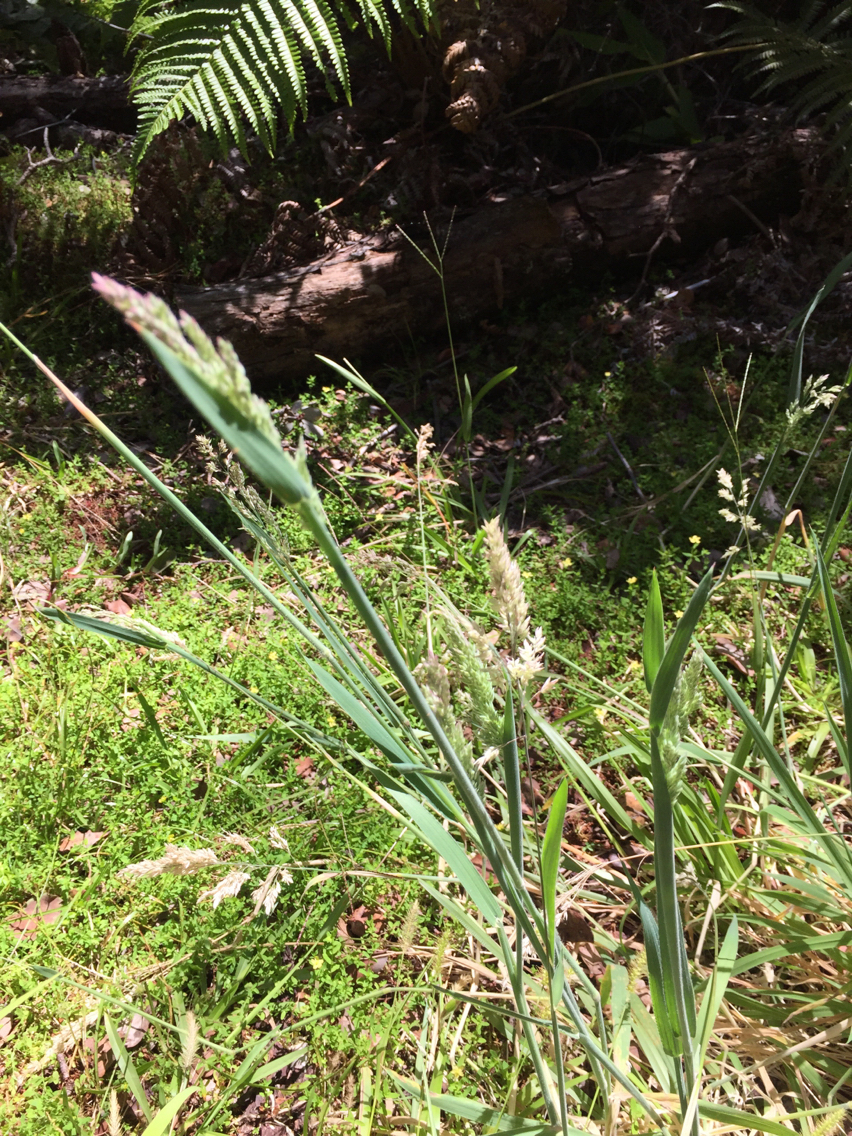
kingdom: Plantae
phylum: Tracheophyta
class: Liliopsida
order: Poales
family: Poaceae
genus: Holcus
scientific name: Holcus lanatus
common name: Yorkshire-fog
